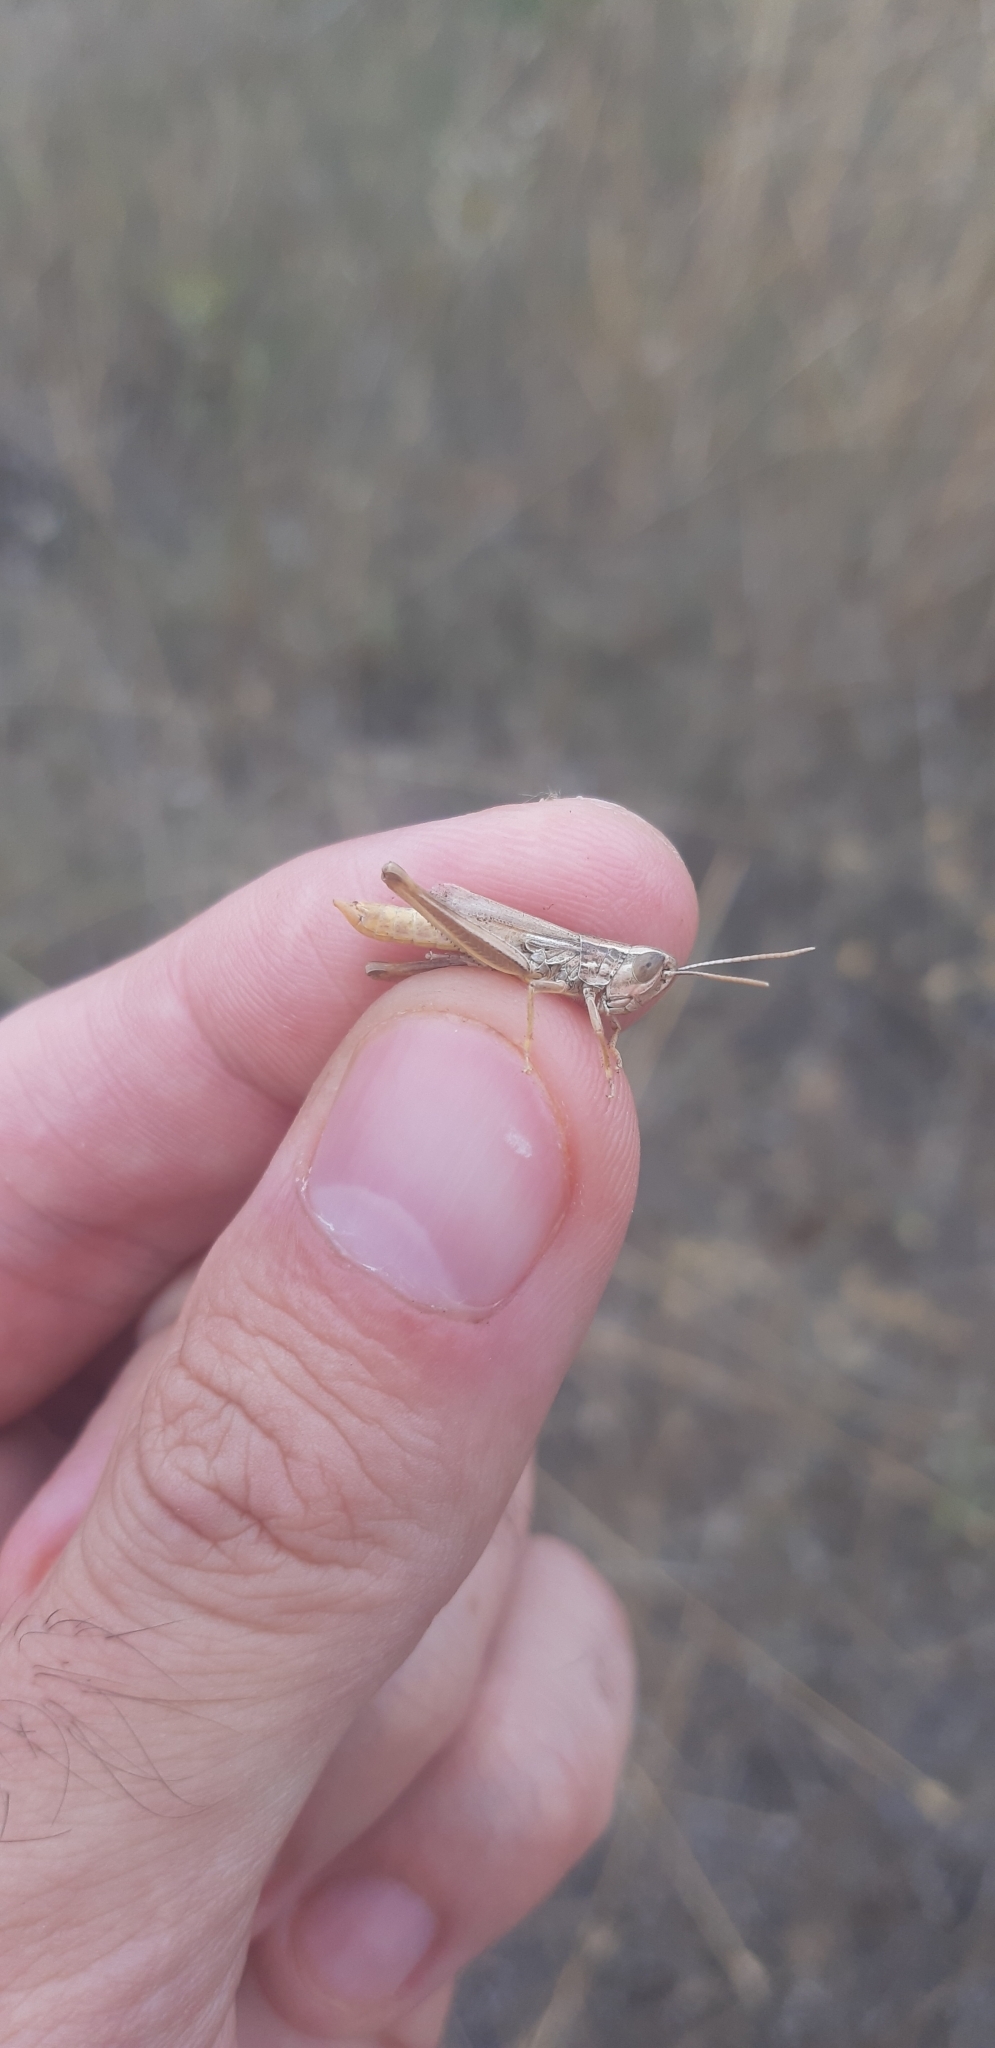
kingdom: Animalia
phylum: Arthropoda
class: Insecta
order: Orthoptera
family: Acrididae
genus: Euchorthippus
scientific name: Euchorthippus declivus
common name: Common straw grasshopper
